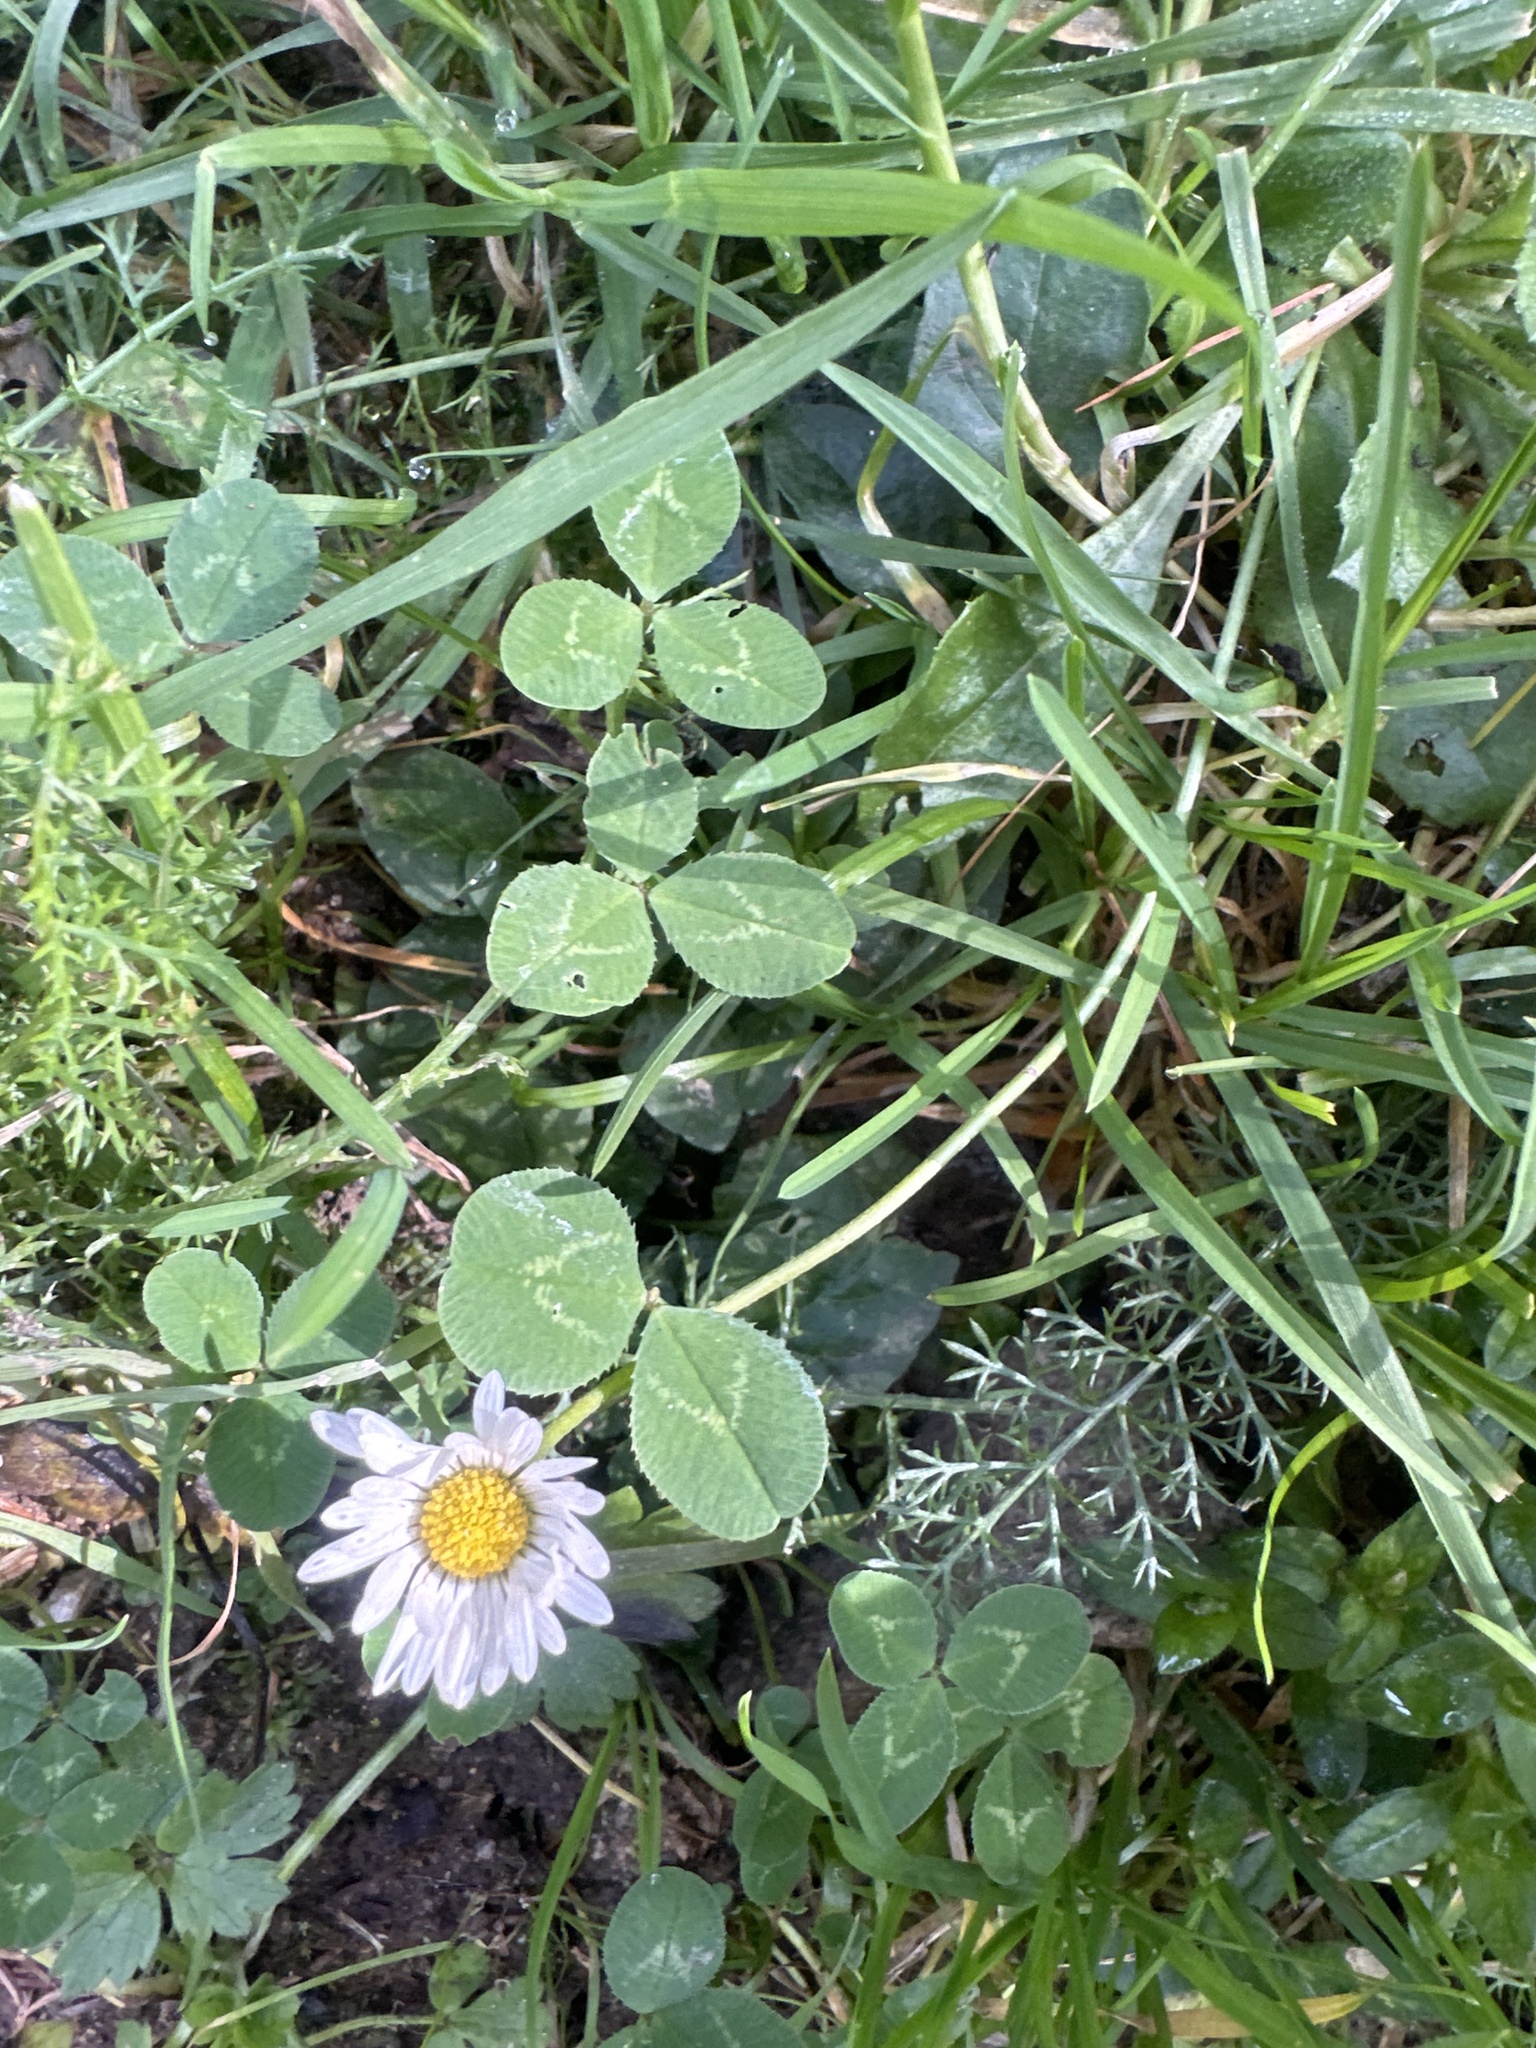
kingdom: Plantae
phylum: Tracheophyta
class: Magnoliopsida
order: Asterales
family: Asteraceae
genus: Bellis
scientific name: Bellis perennis
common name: Lawndaisy
